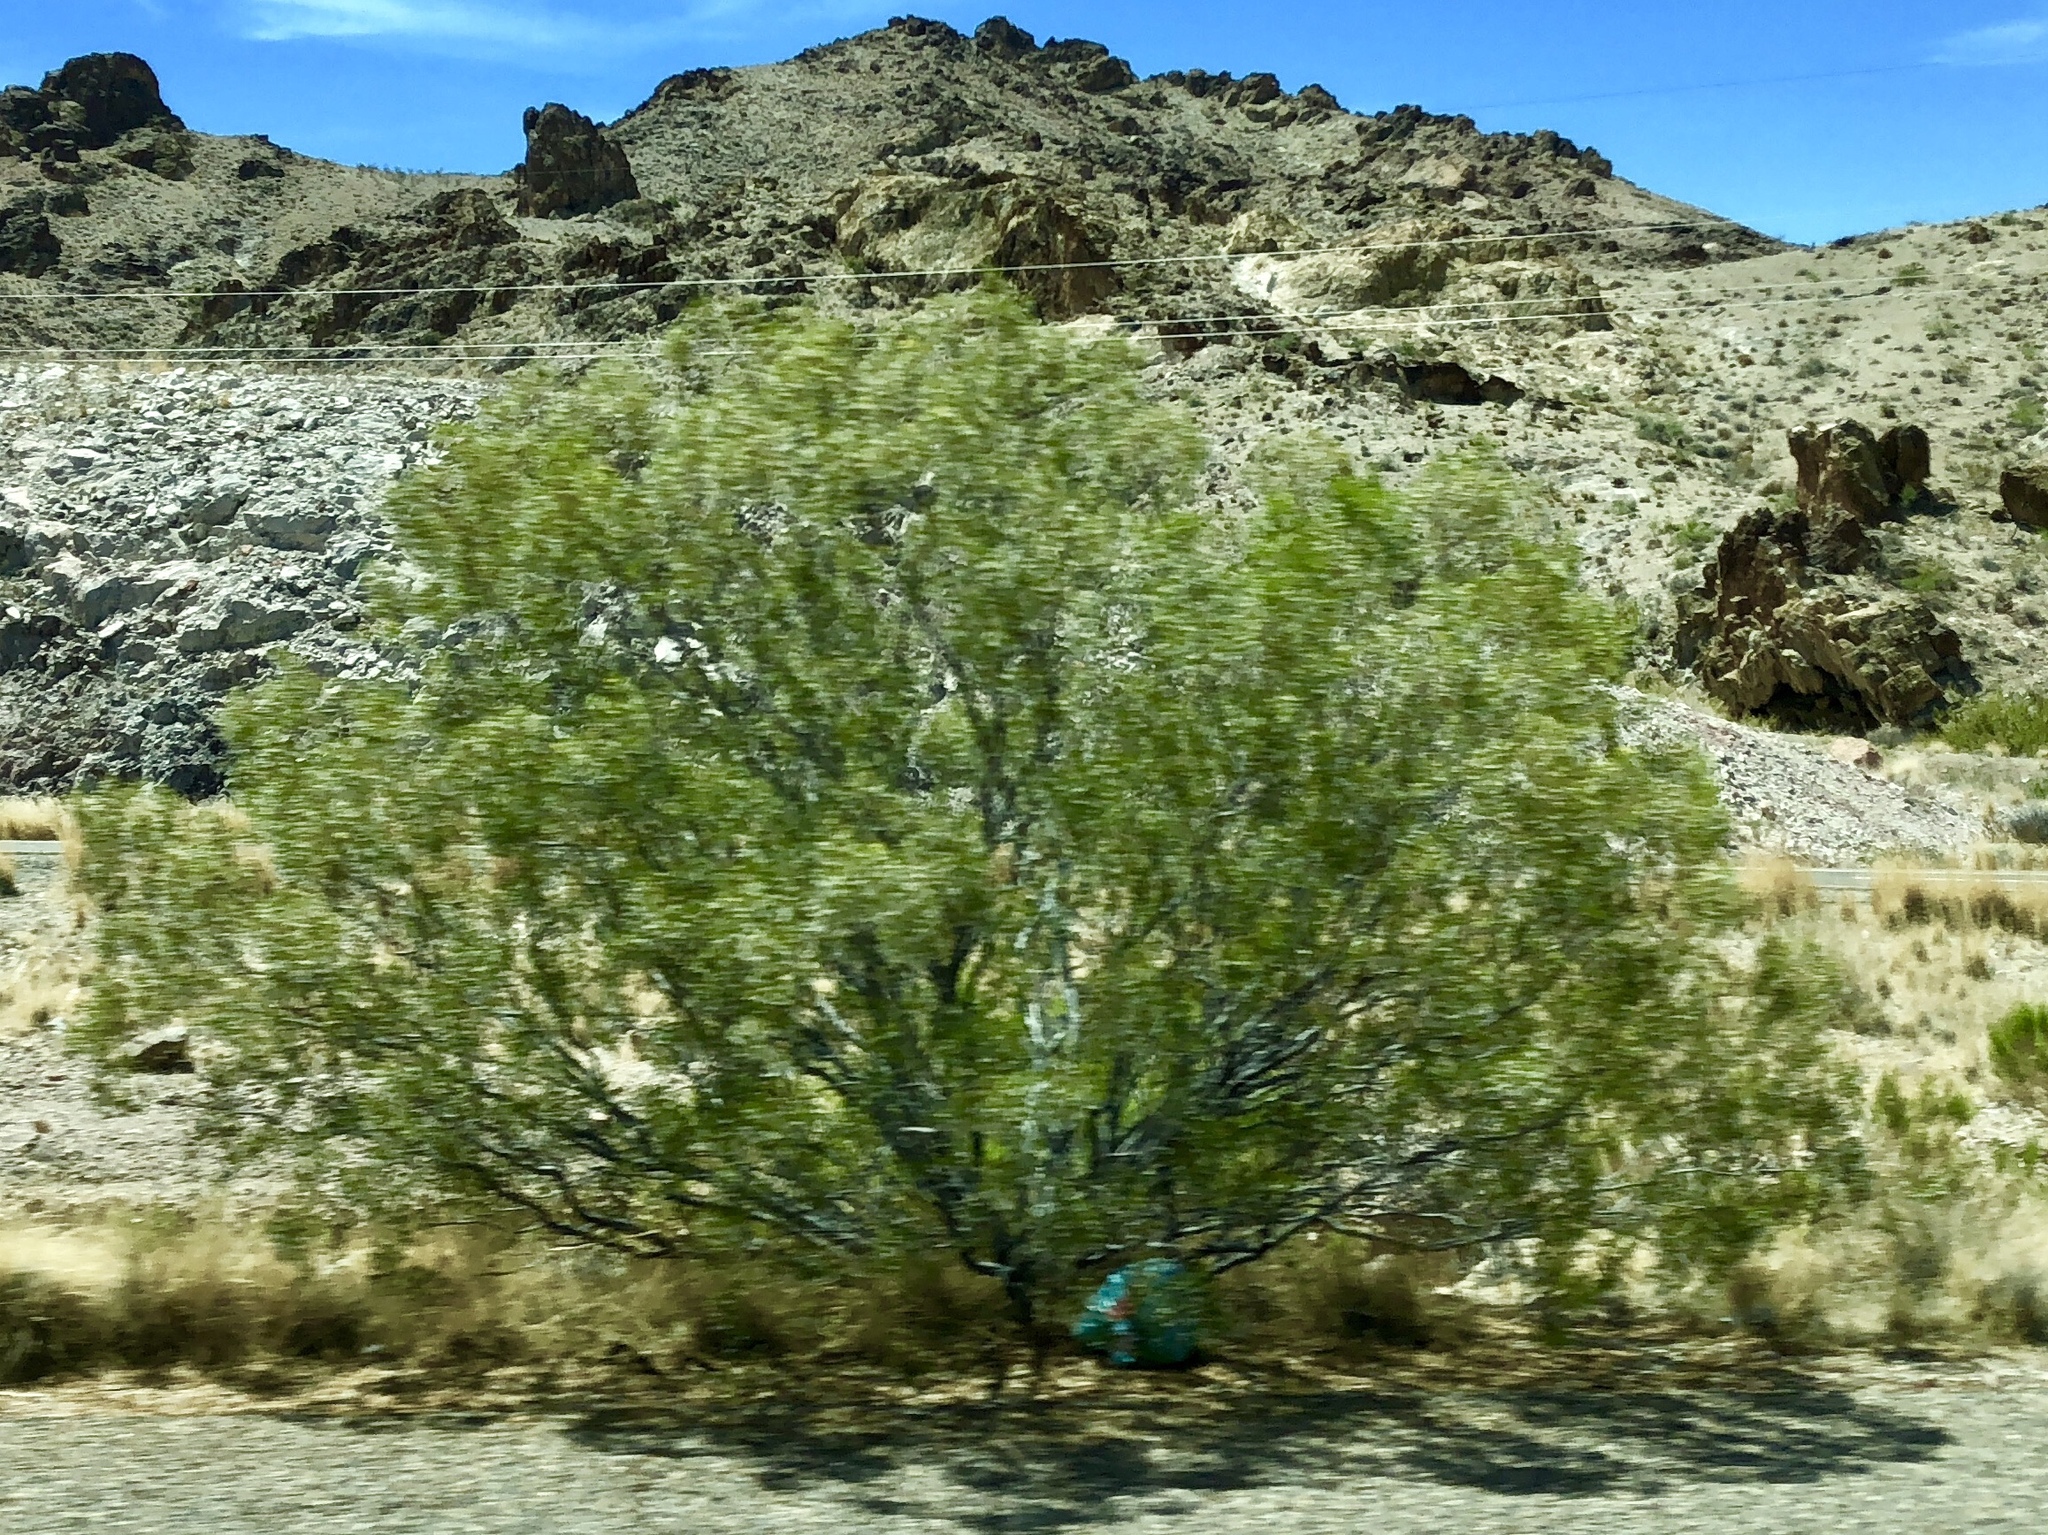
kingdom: Plantae
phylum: Tracheophyta
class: Magnoliopsida
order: Zygophyllales
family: Zygophyllaceae
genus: Larrea
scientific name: Larrea tridentata
